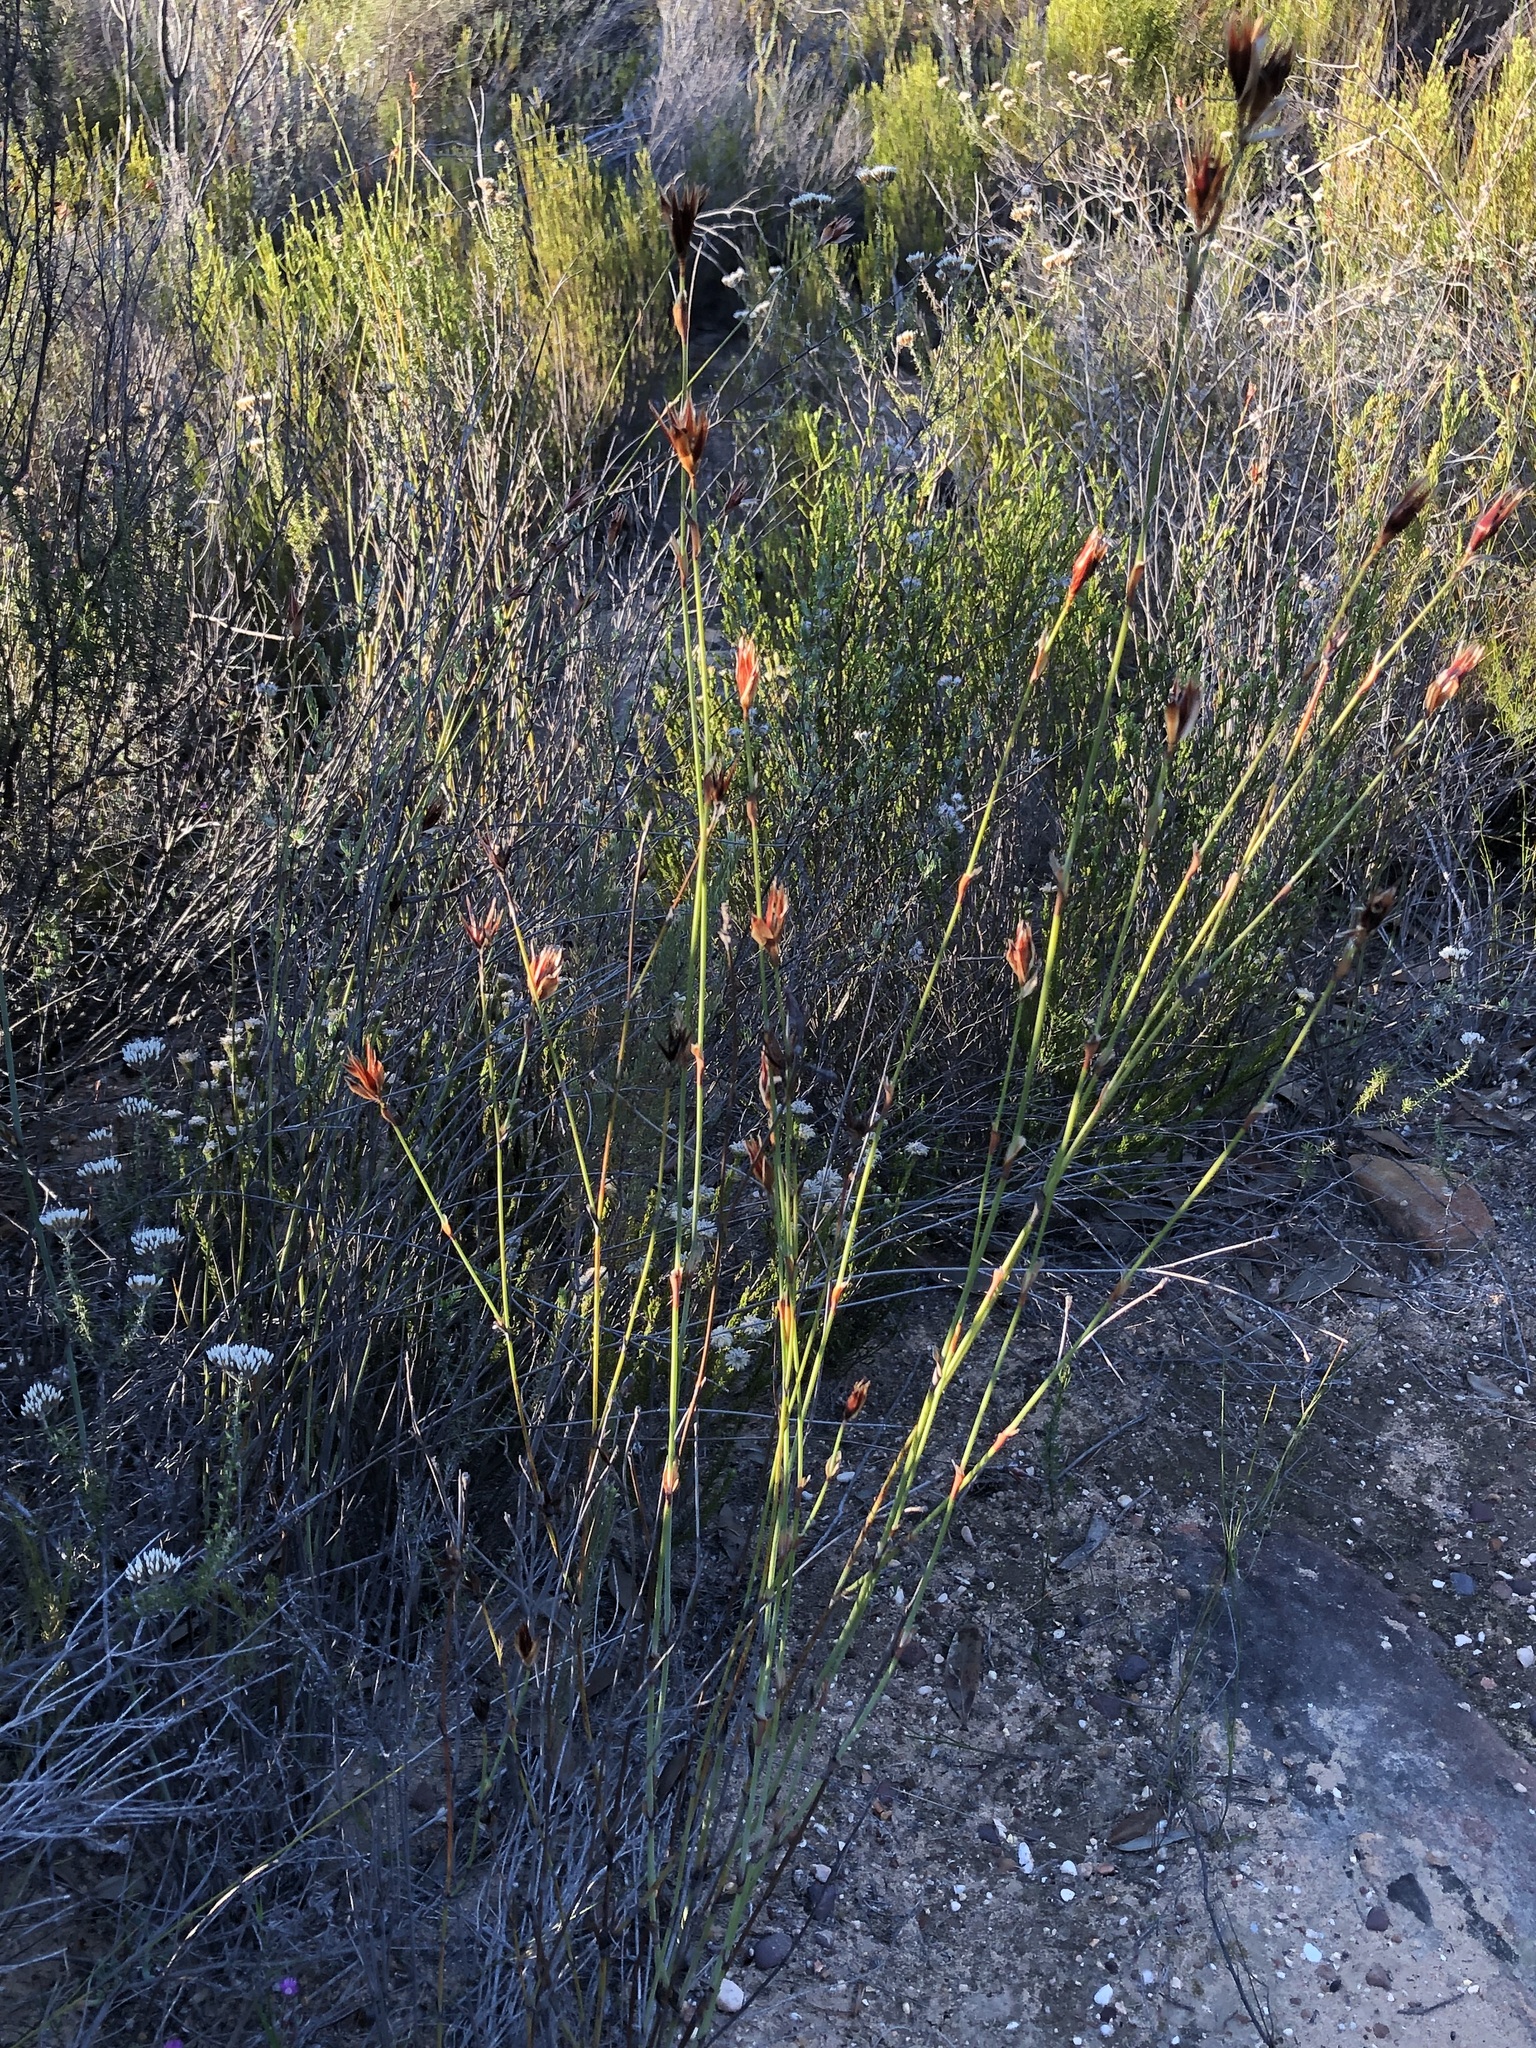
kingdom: Plantae
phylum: Tracheophyta
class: Liliopsida
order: Poales
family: Restionaceae
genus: Willdenowia
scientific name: Willdenowia incurvata
